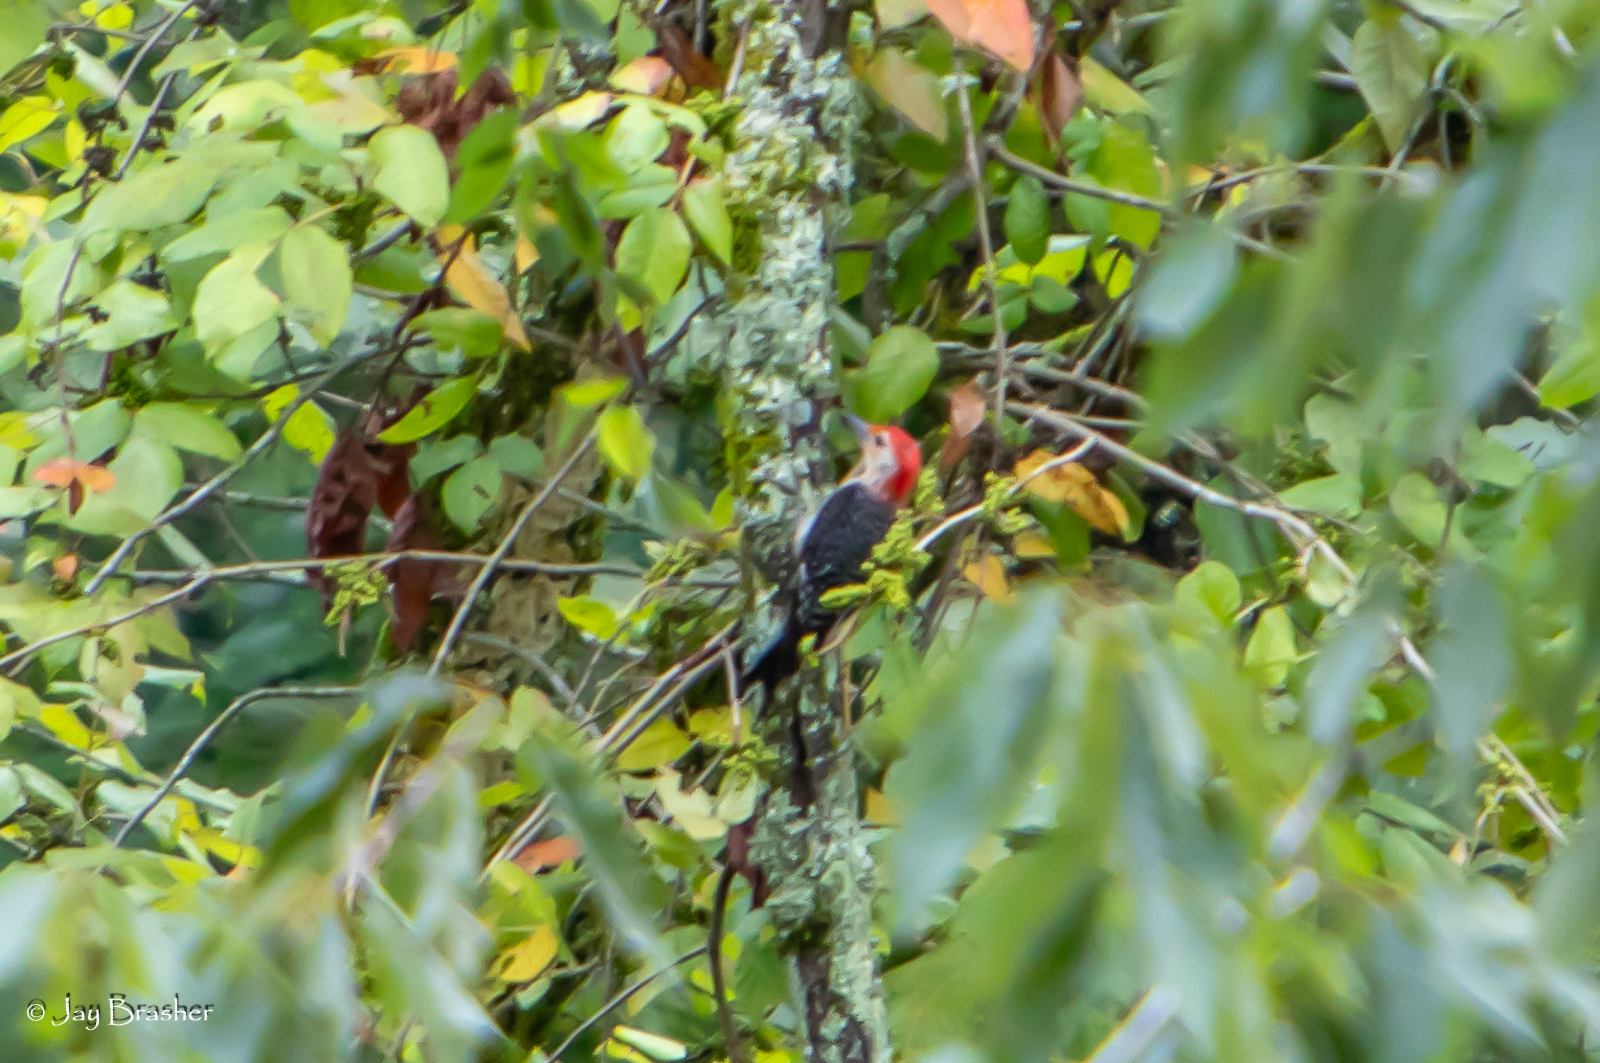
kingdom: Animalia
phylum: Chordata
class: Aves
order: Piciformes
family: Picidae
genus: Melanerpes
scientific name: Melanerpes carolinus
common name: Red-bellied woodpecker
